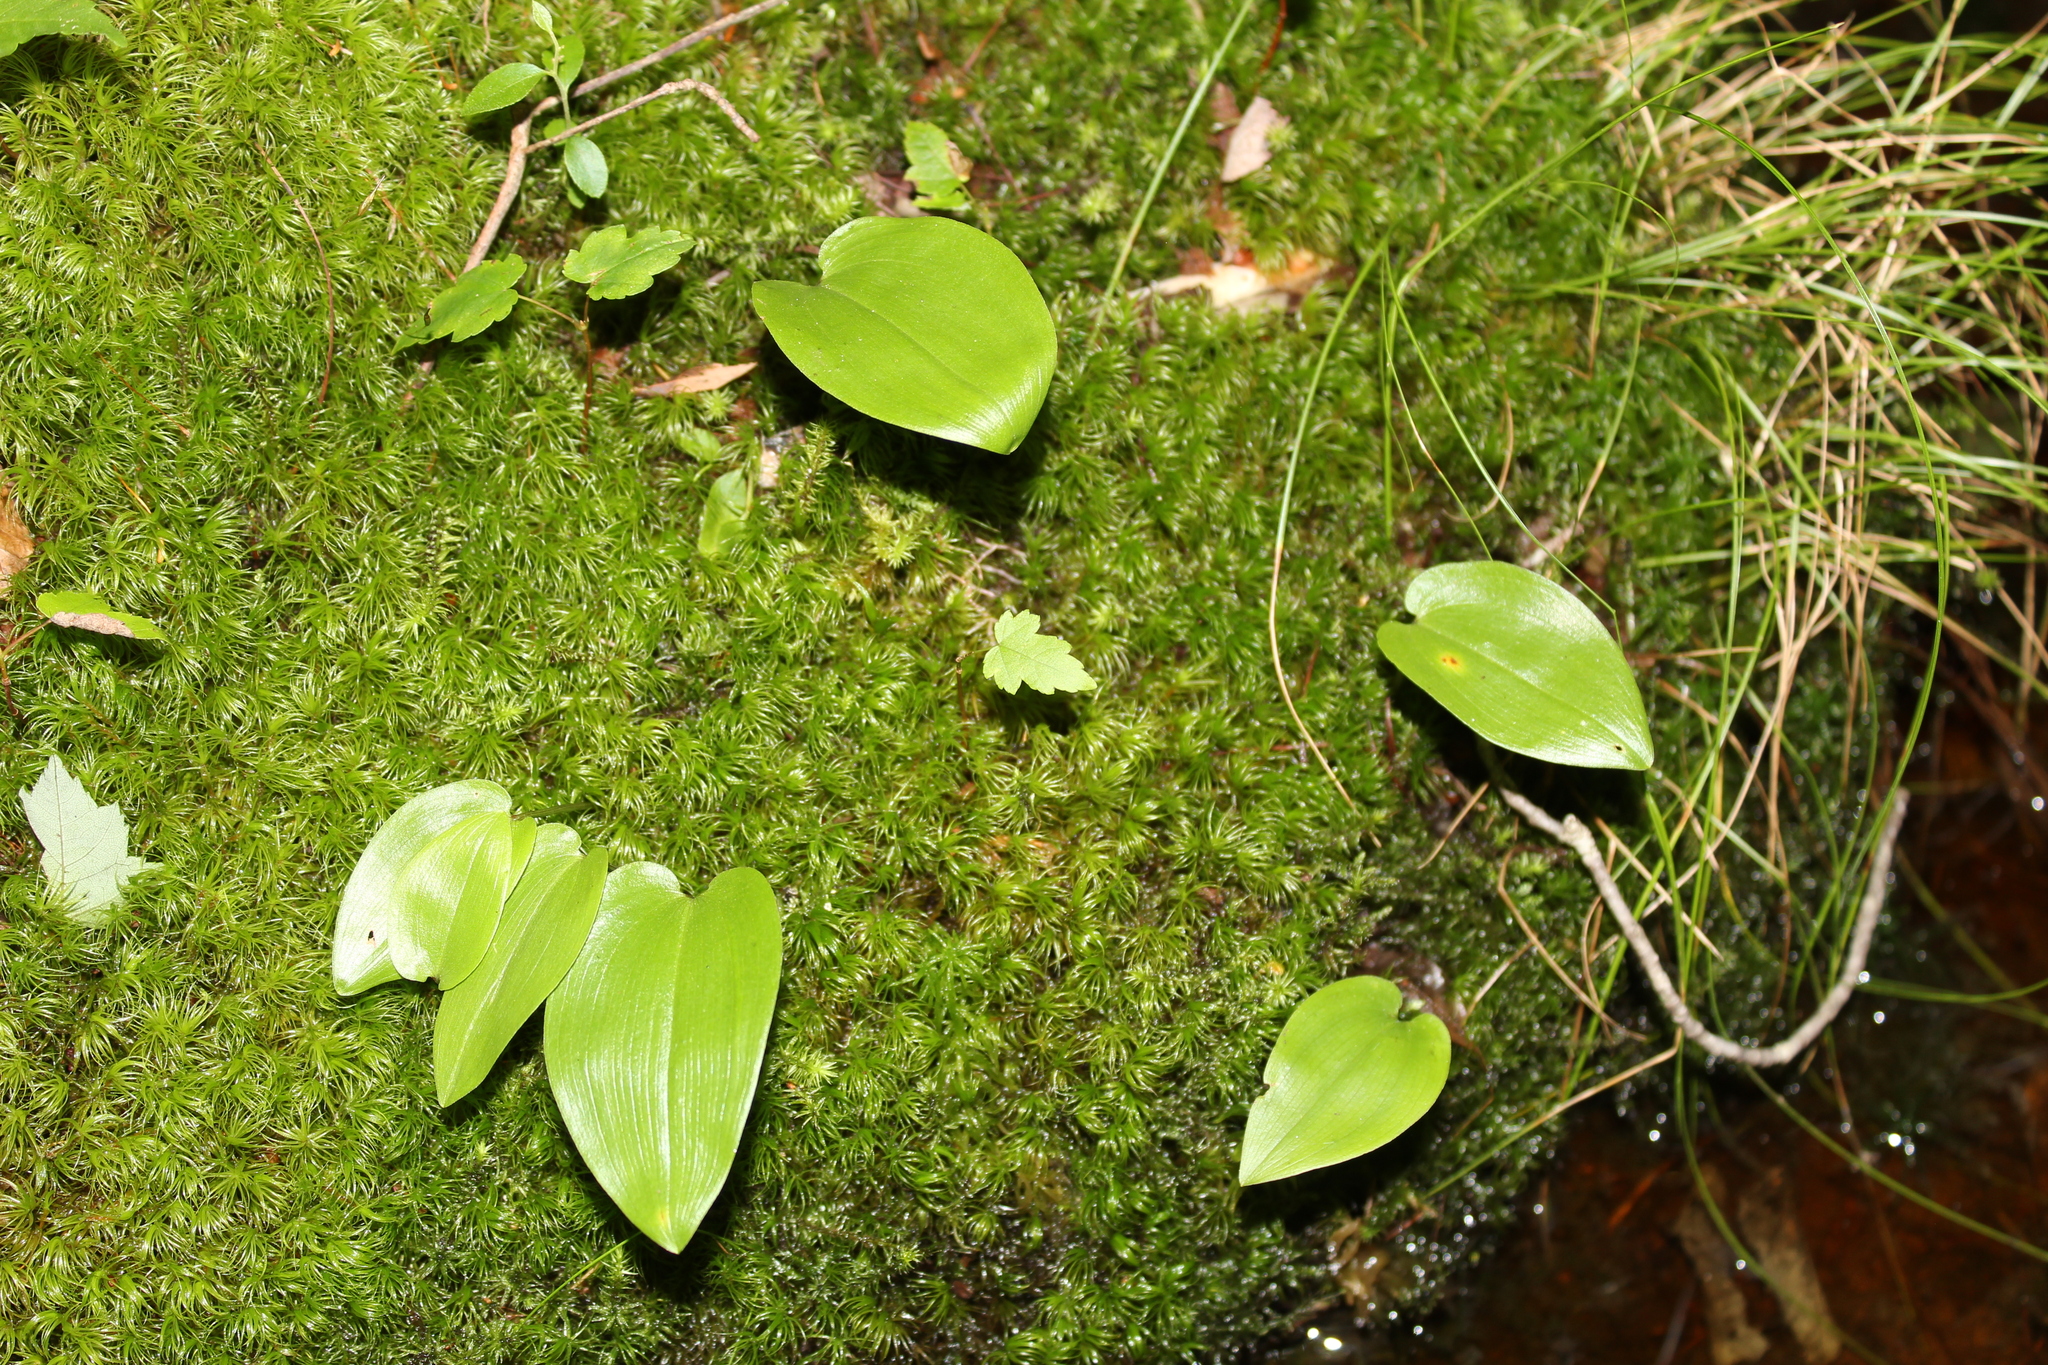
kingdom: Plantae
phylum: Tracheophyta
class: Liliopsida
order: Asparagales
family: Asparagaceae
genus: Maianthemum
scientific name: Maianthemum canadense
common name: False lily-of-the-valley
